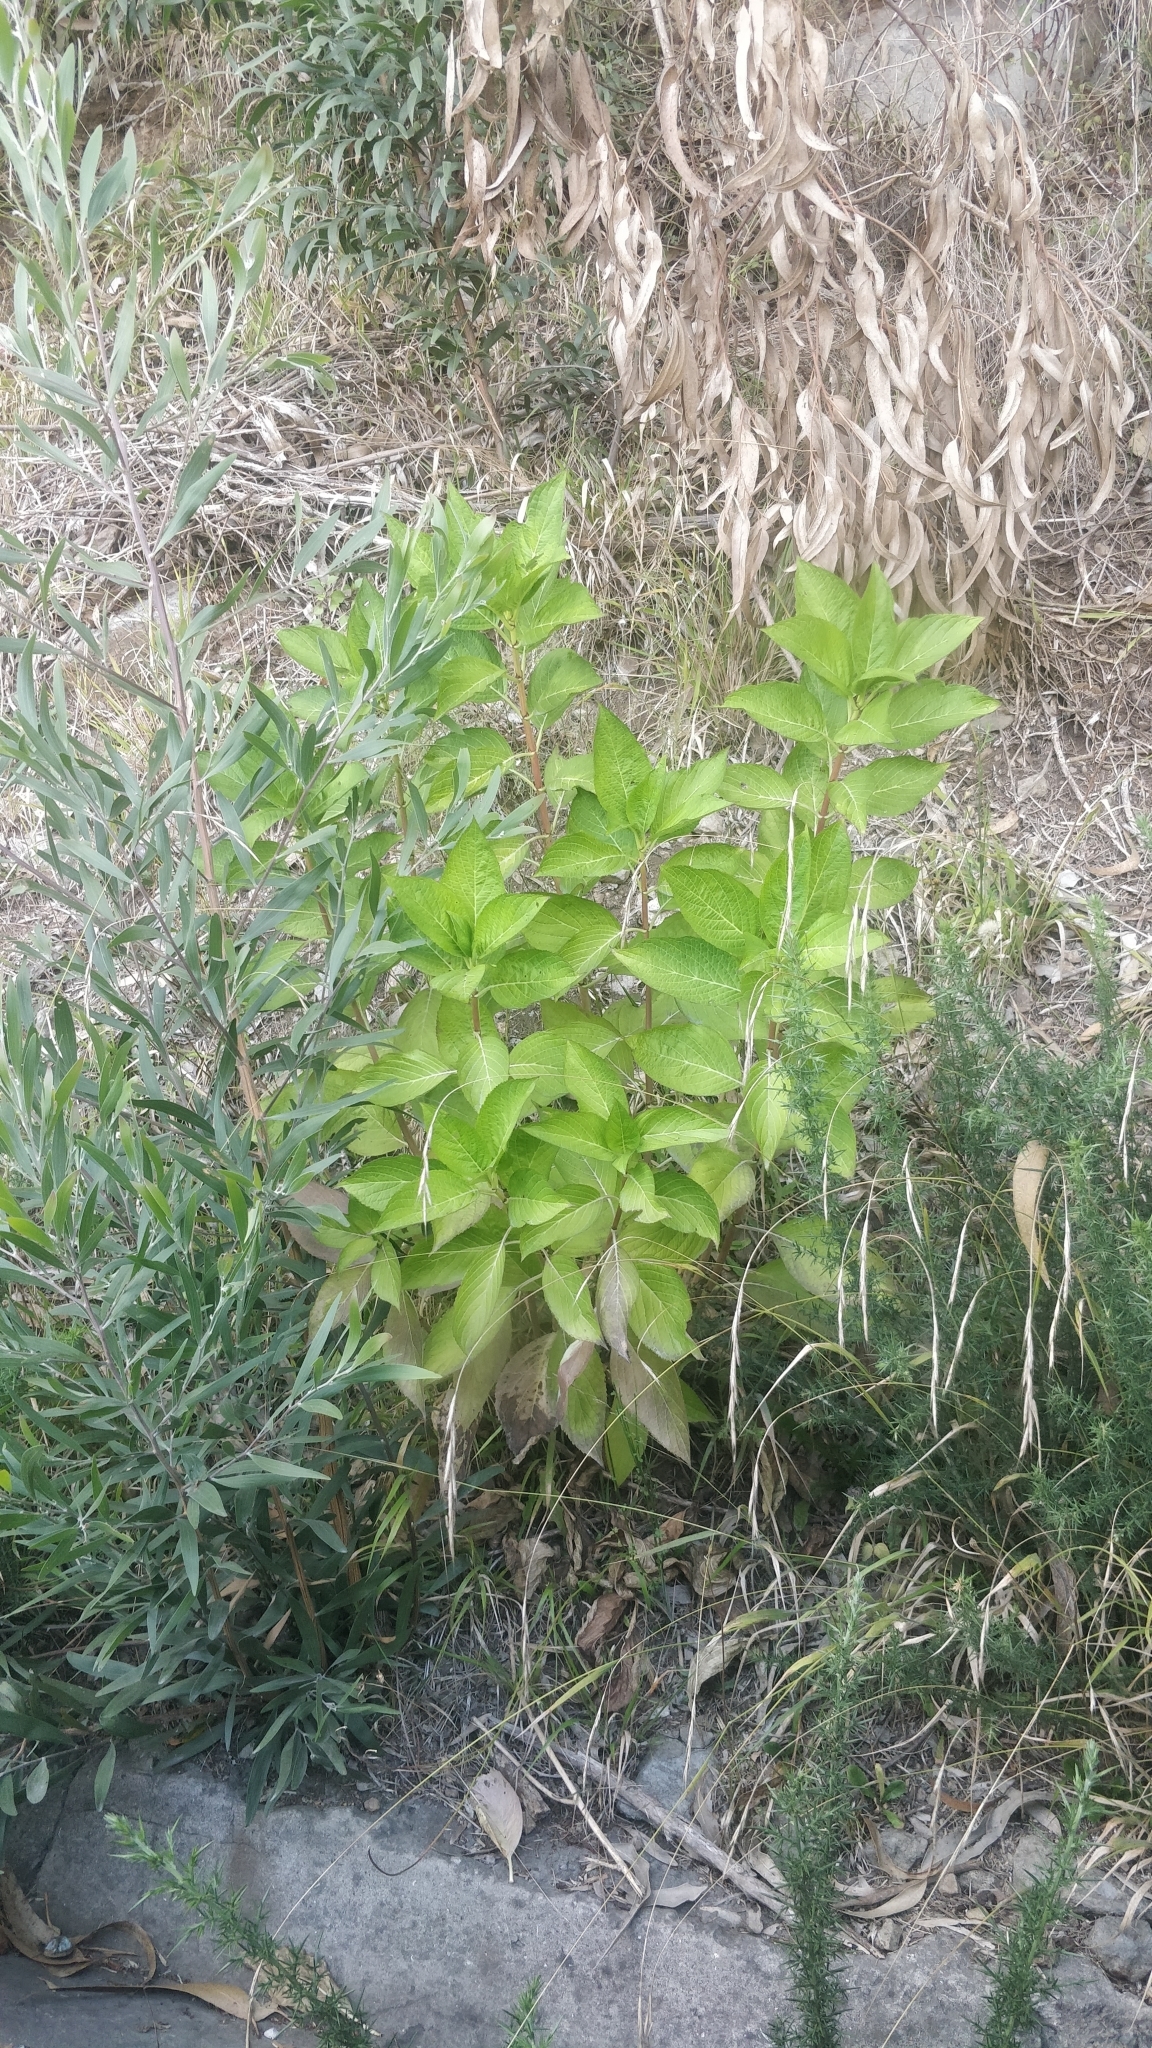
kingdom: Plantae
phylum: Tracheophyta
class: Magnoliopsida
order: Cornales
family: Hydrangeaceae
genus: Hydrangea
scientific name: Hydrangea macrophylla
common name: Hydrangea
